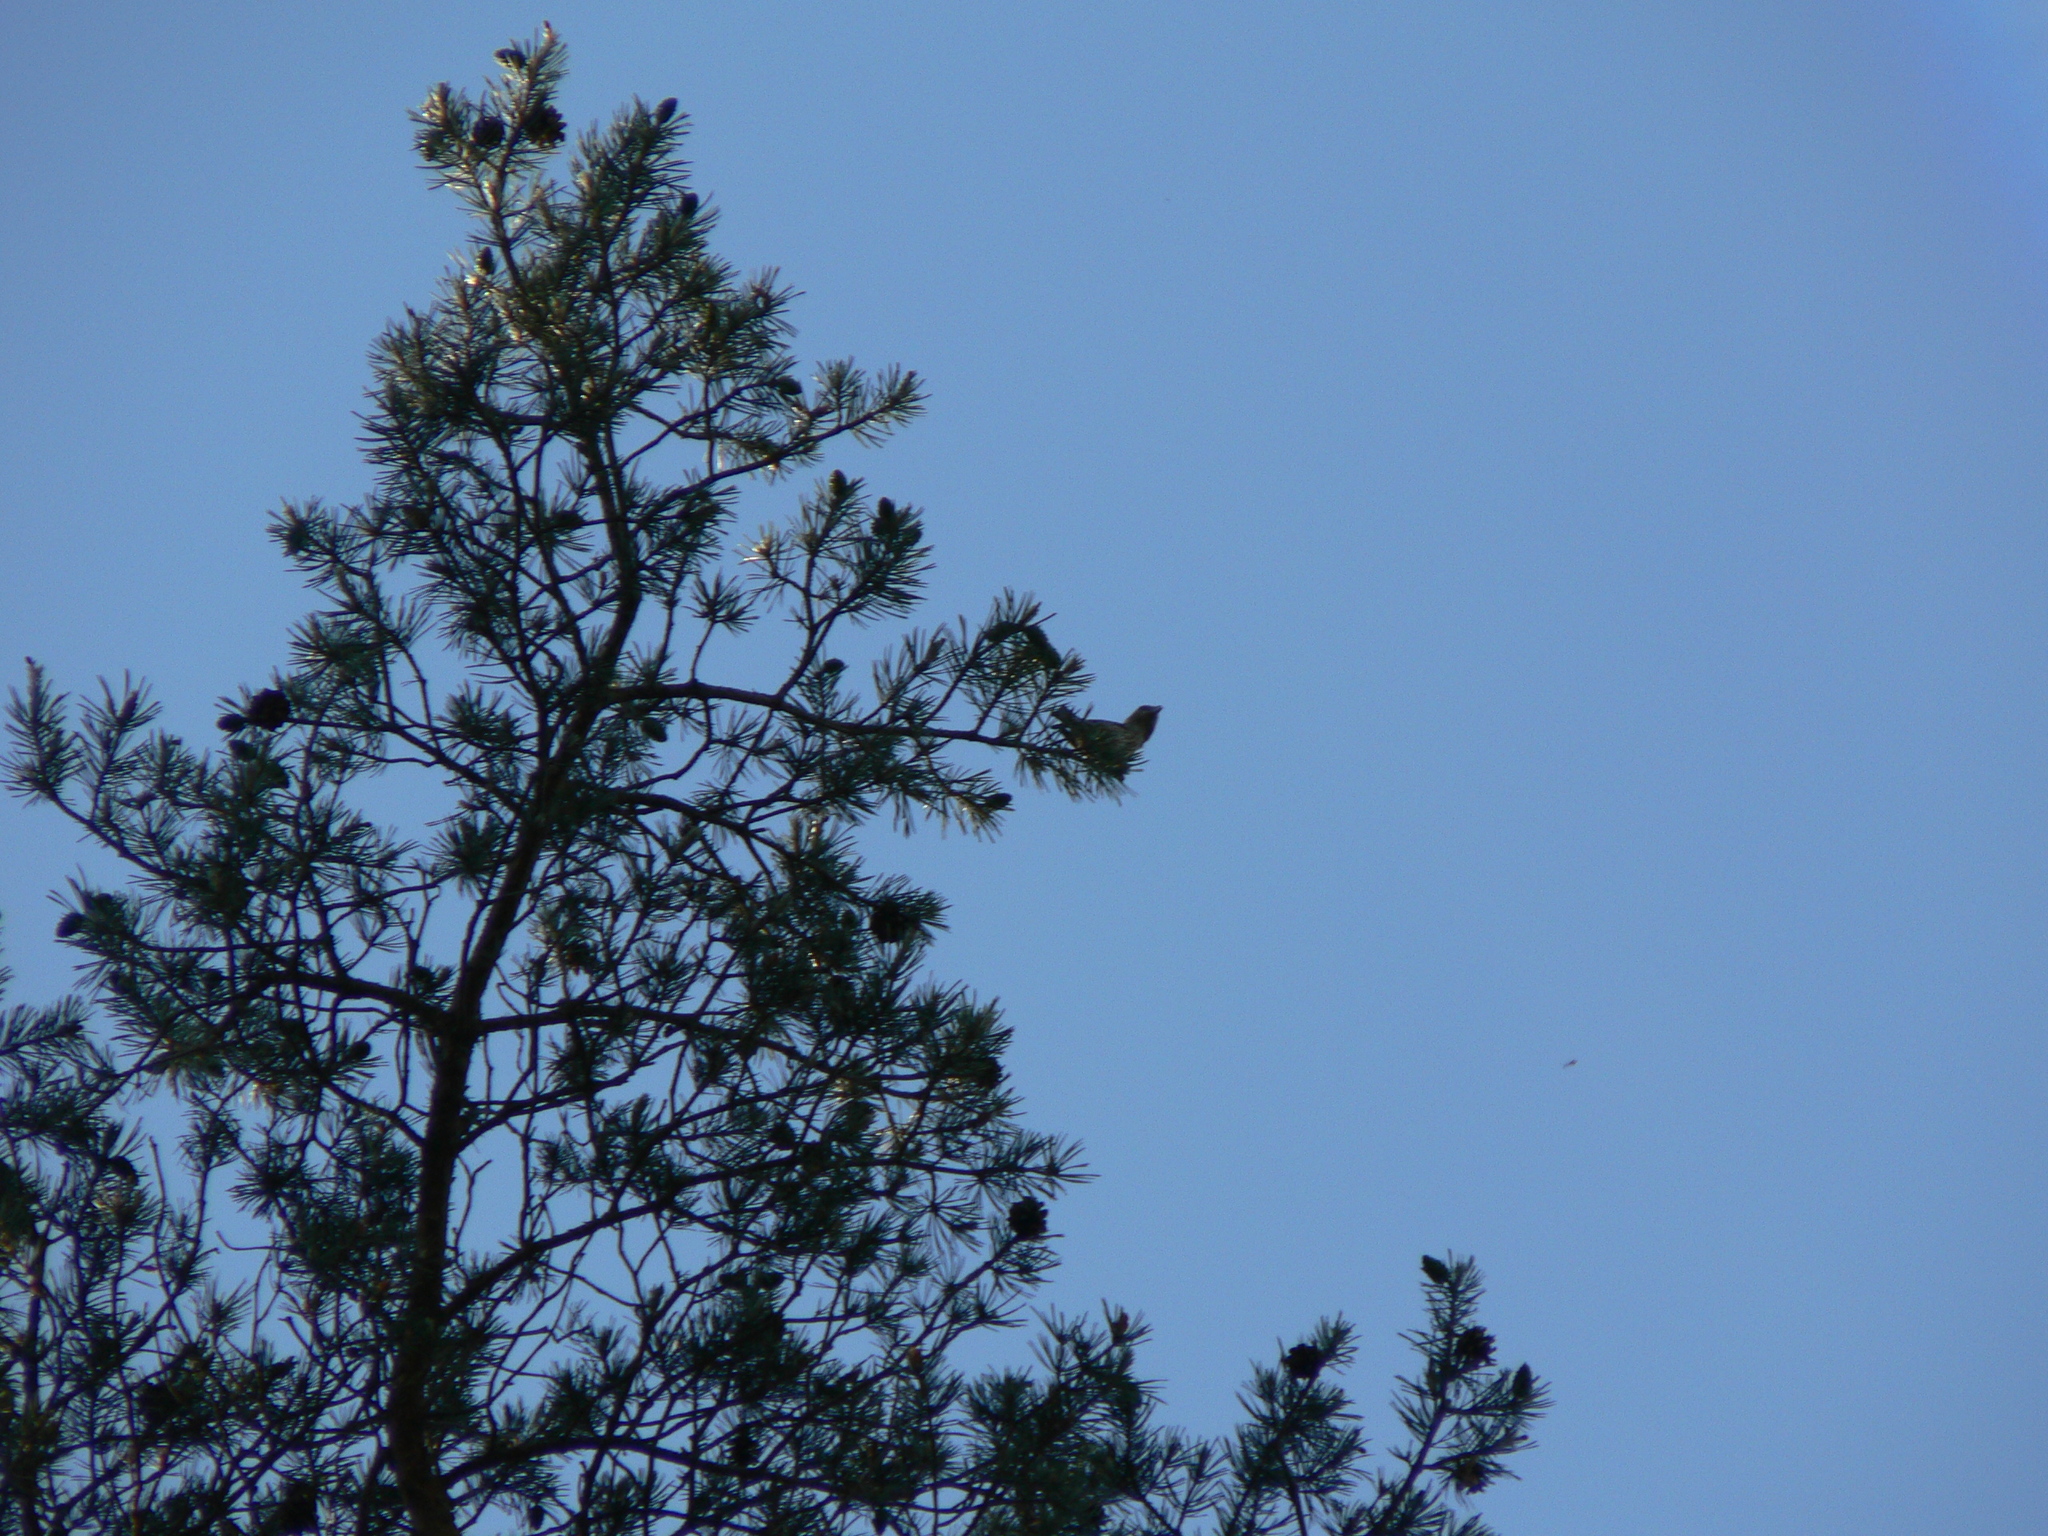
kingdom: Animalia
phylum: Chordata
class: Aves
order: Passeriformes
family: Fringillidae
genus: Loxia
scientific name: Loxia curvirostra
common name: Red crossbill
